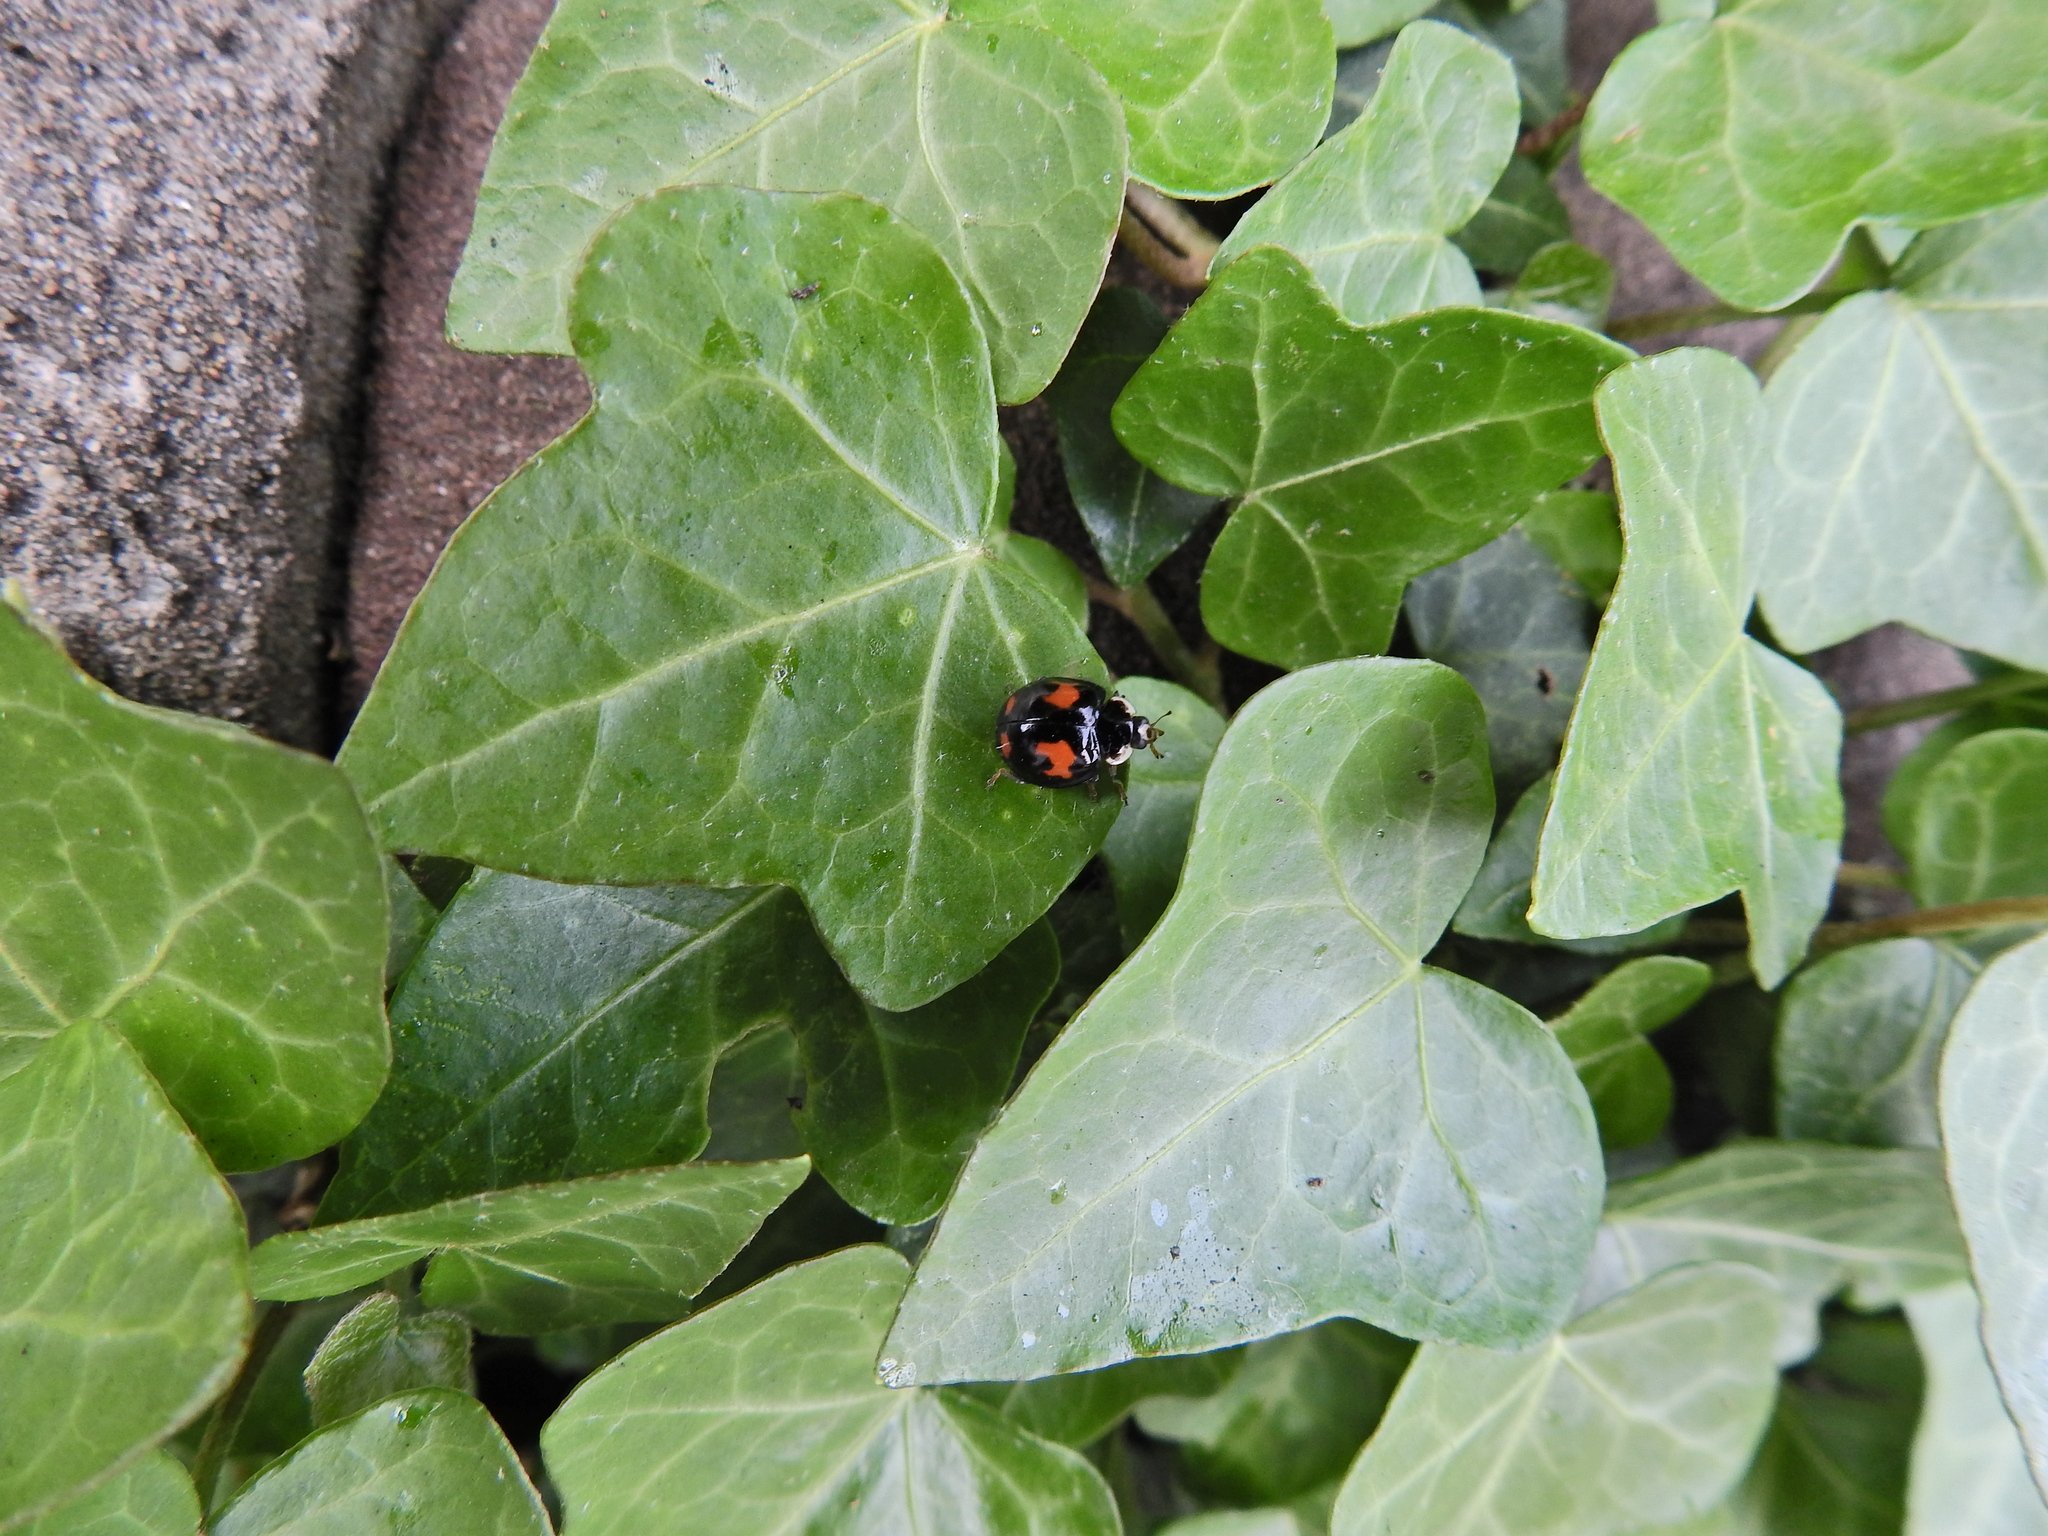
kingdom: Animalia
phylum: Arthropoda
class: Insecta
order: Coleoptera
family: Coccinellidae
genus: Harmonia
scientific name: Harmonia axyridis
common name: Harlequin ladybird
